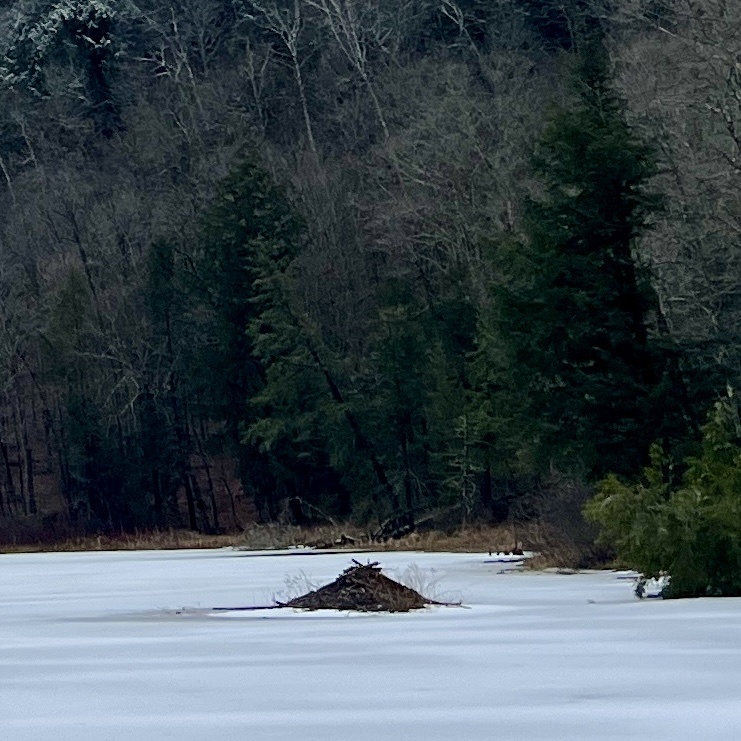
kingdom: Animalia
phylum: Chordata
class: Mammalia
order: Rodentia
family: Castoridae
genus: Castor
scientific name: Castor canadensis
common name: American beaver
